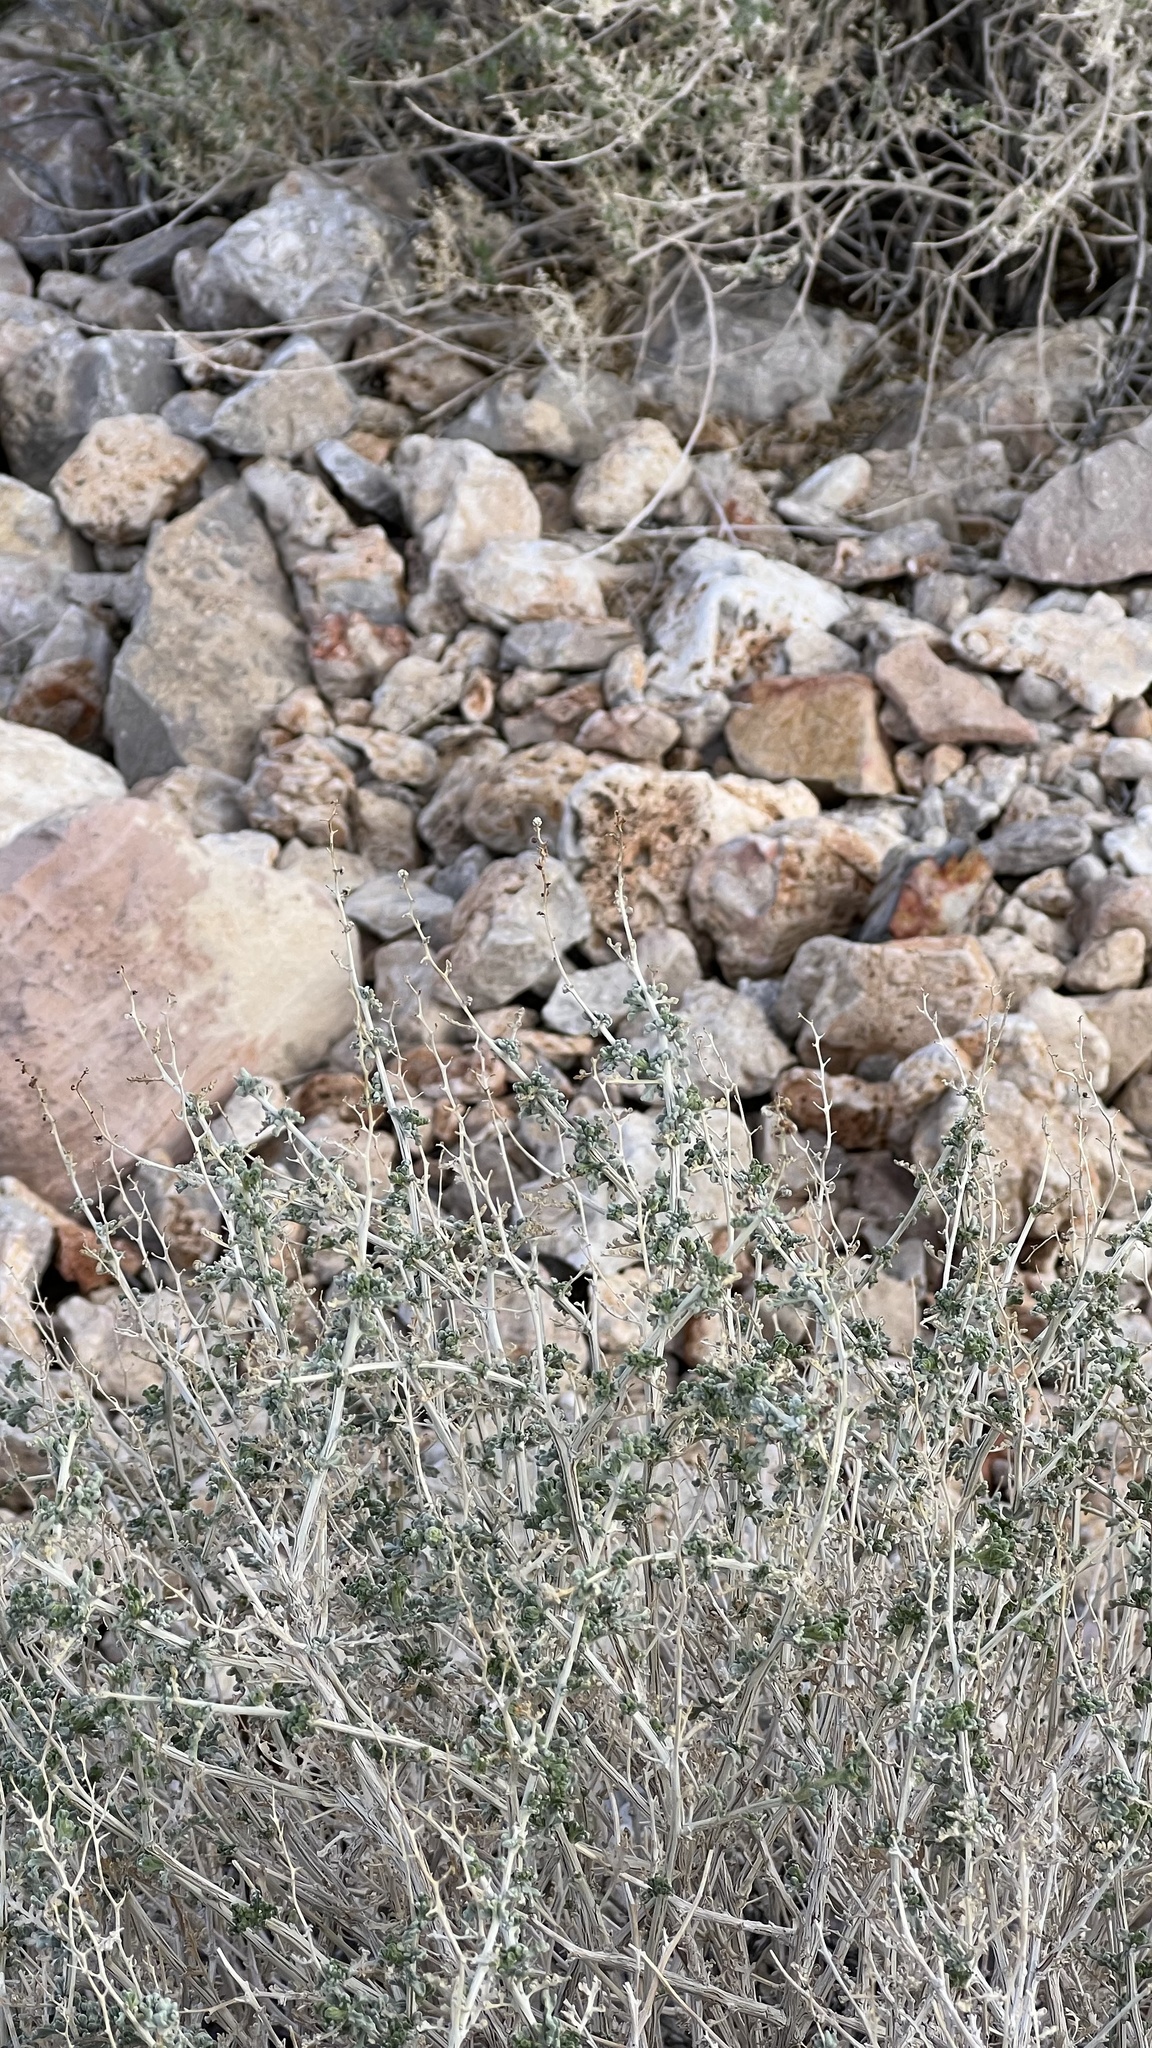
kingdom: Plantae
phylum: Tracheophyta
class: Magnoliopsida
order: Asterales
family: Asteraceae
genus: Ambrosia
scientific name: Ambrosia dumosa
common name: Bur-sage
